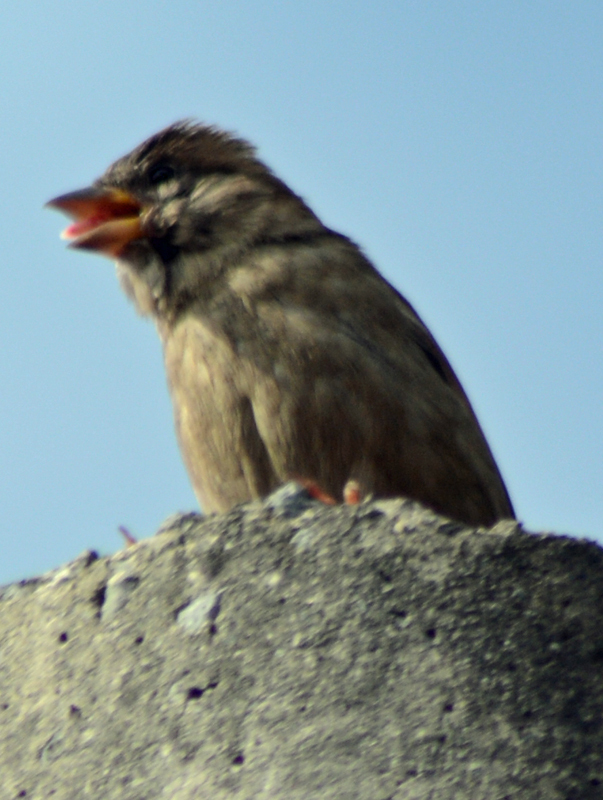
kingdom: Animalia
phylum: Chordata
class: Aves
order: Passeriformes
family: Passeridae
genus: Passer
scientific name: Passer domesticus
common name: House sparrow
